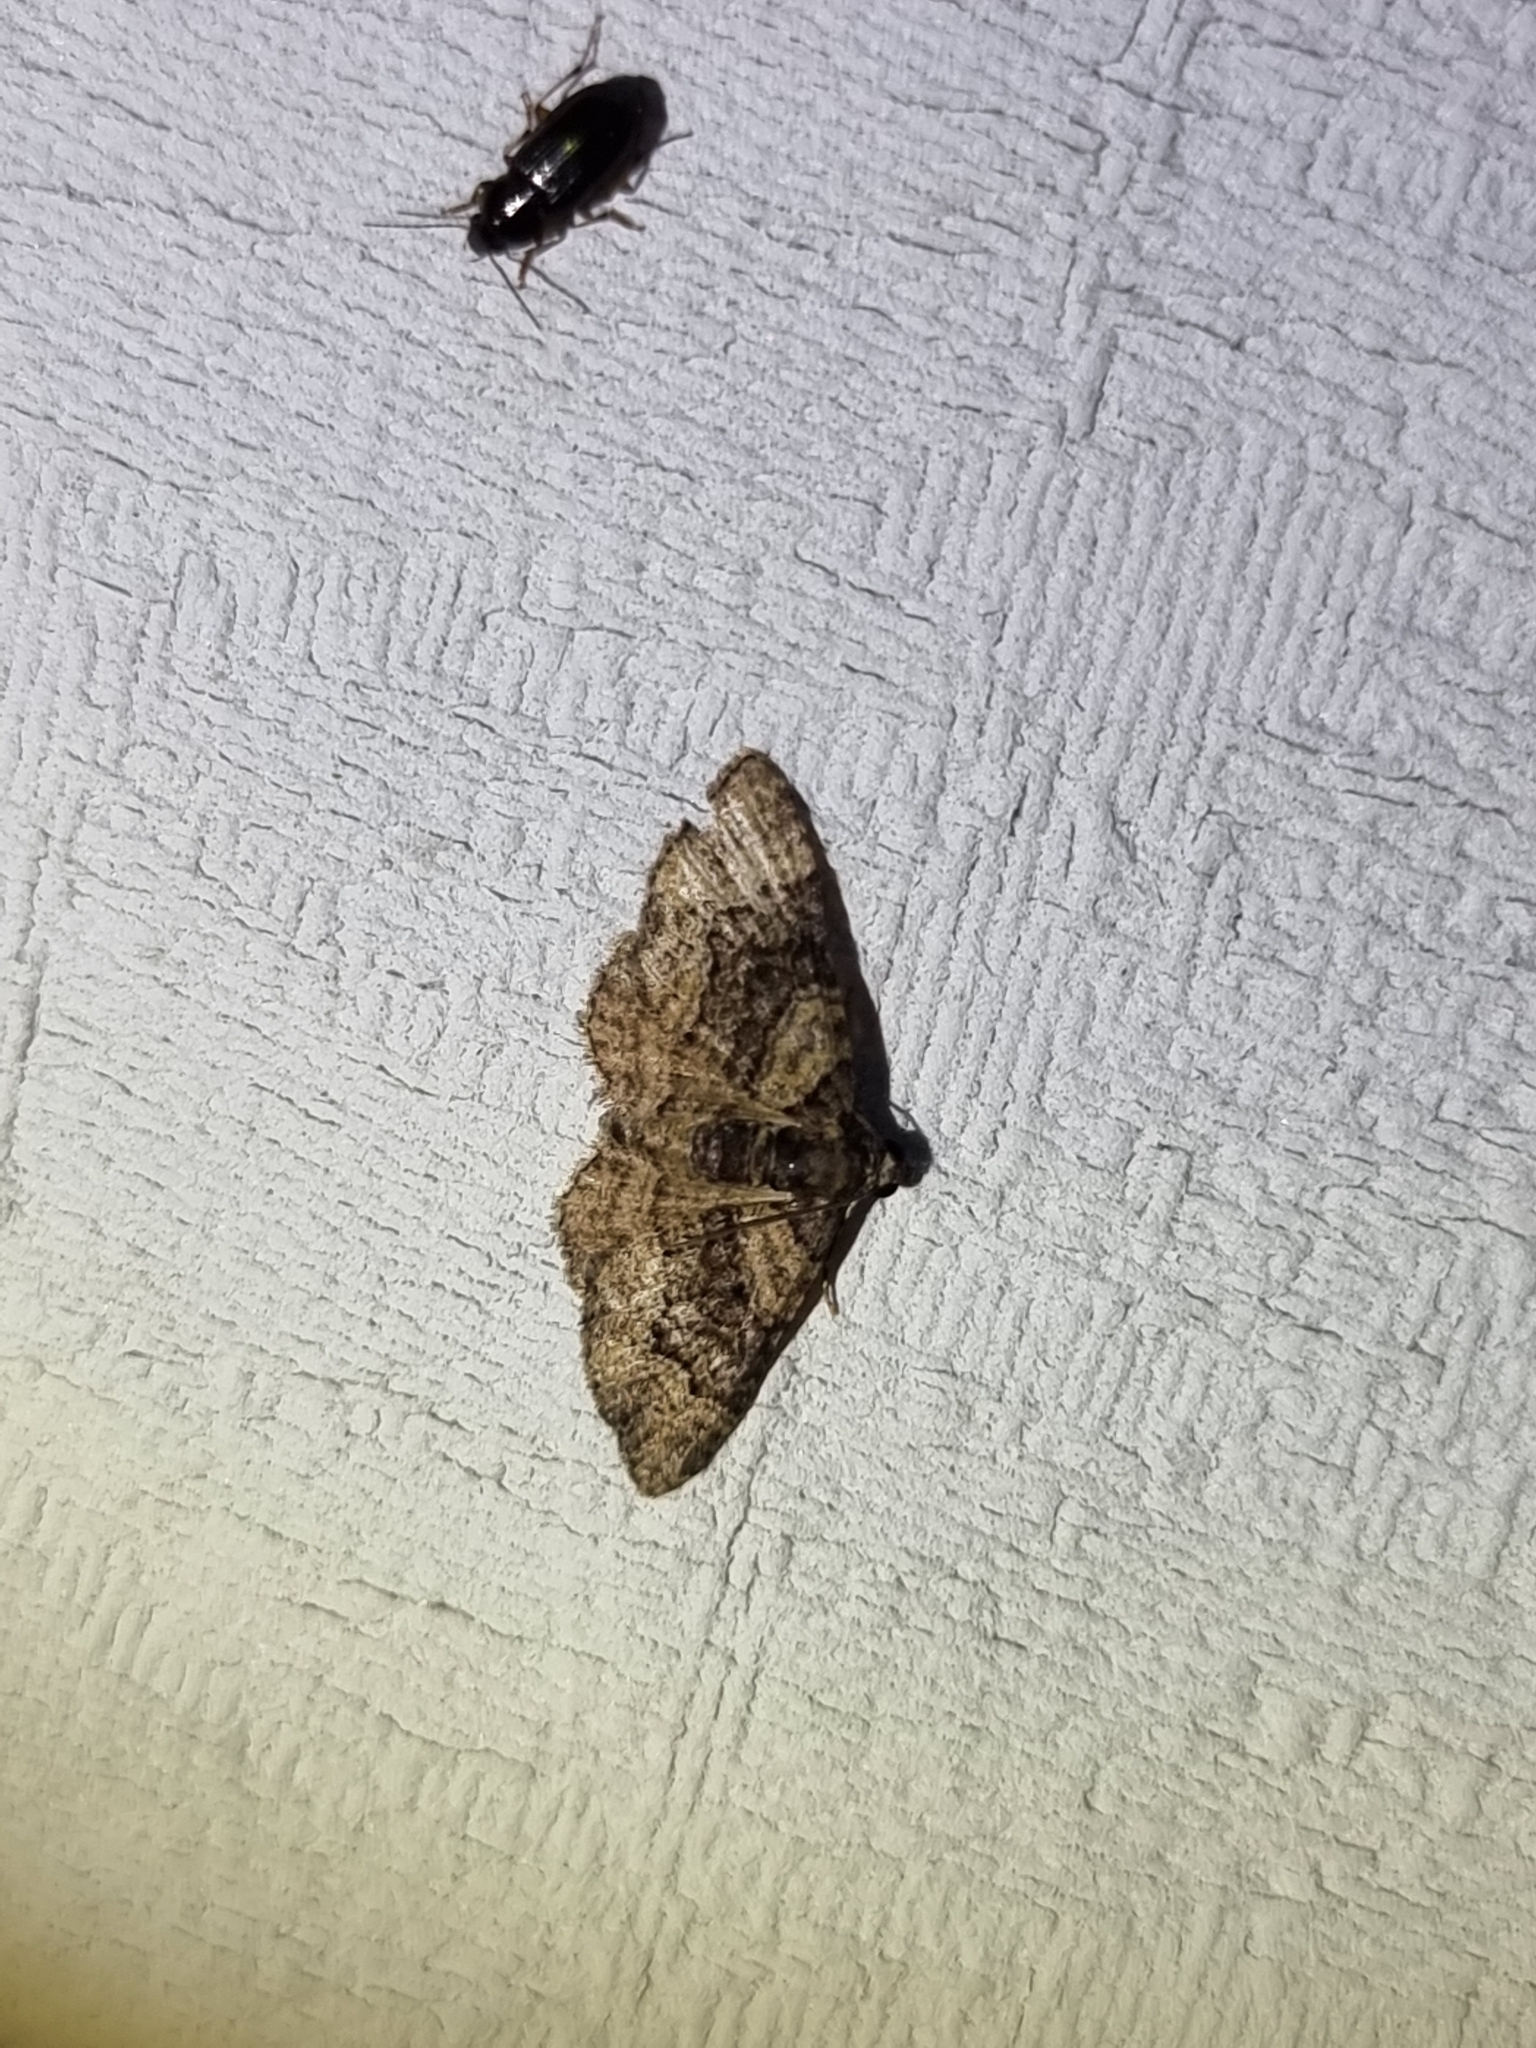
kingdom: Animalia
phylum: Arthropoda
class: Insecta
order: Lepidoptera
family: Geometridae
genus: Epyaxa
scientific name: Epyaxa sodaliata
